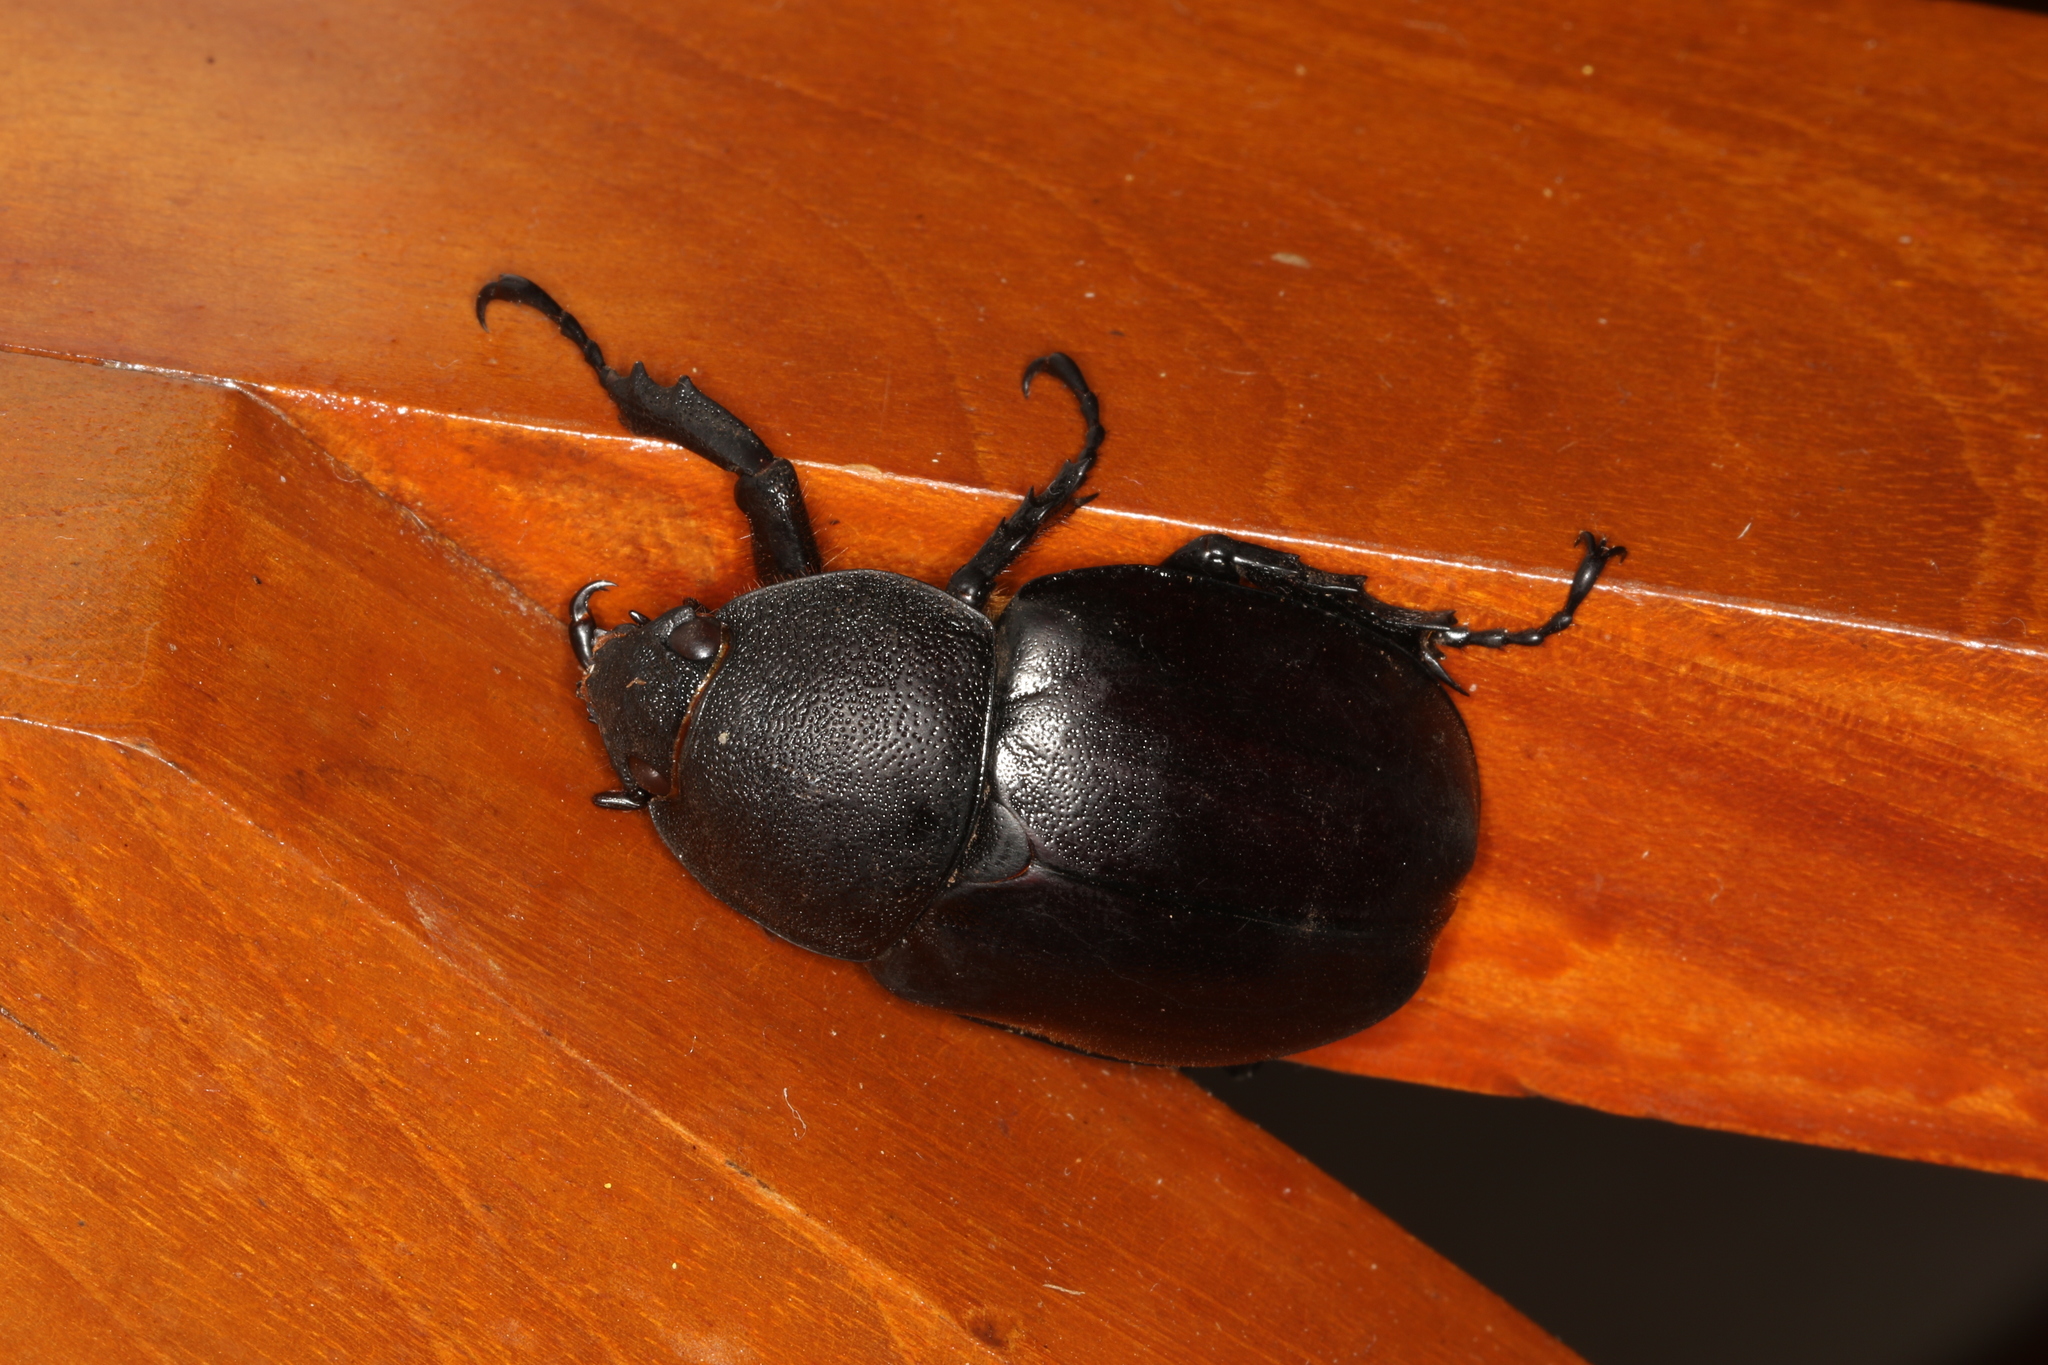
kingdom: Animalia
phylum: Arthropoda
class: Insecta
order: Coleoptera
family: Scarabaeidae
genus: Xylotrupes
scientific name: Xylotrupes australicus
